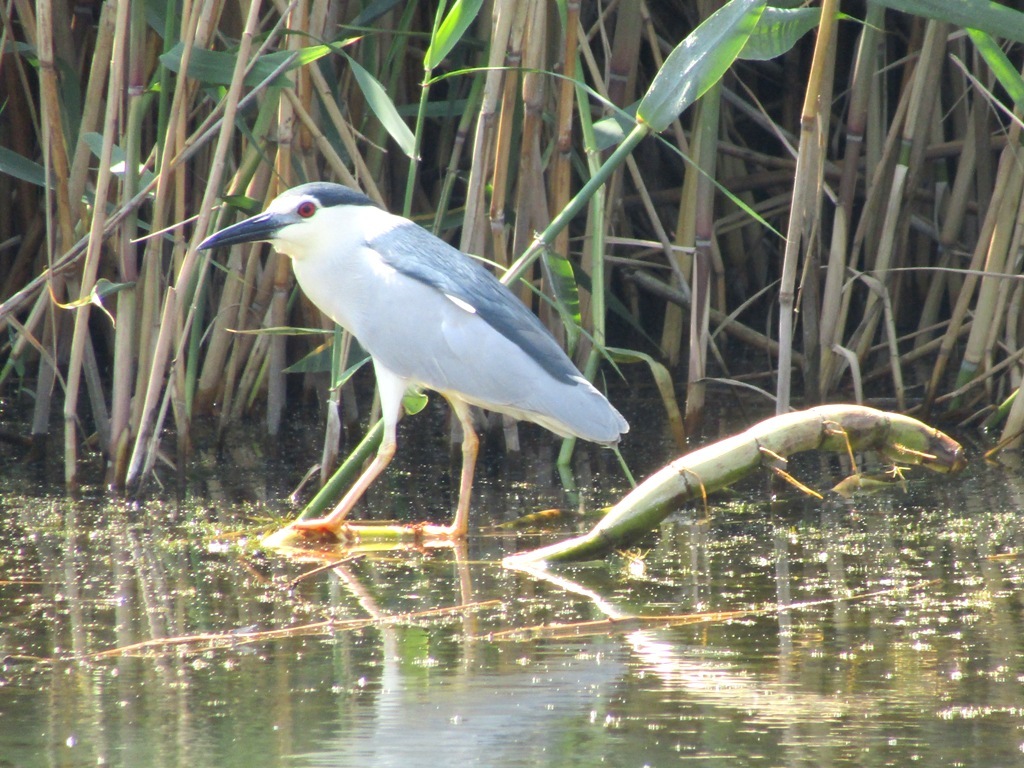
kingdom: Animalia
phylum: Chordata
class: Aves
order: Pelecaniformes
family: Ardeidae
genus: Nycticorax
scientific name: Nycticorax nycticorax
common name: Black-crowned night heron
